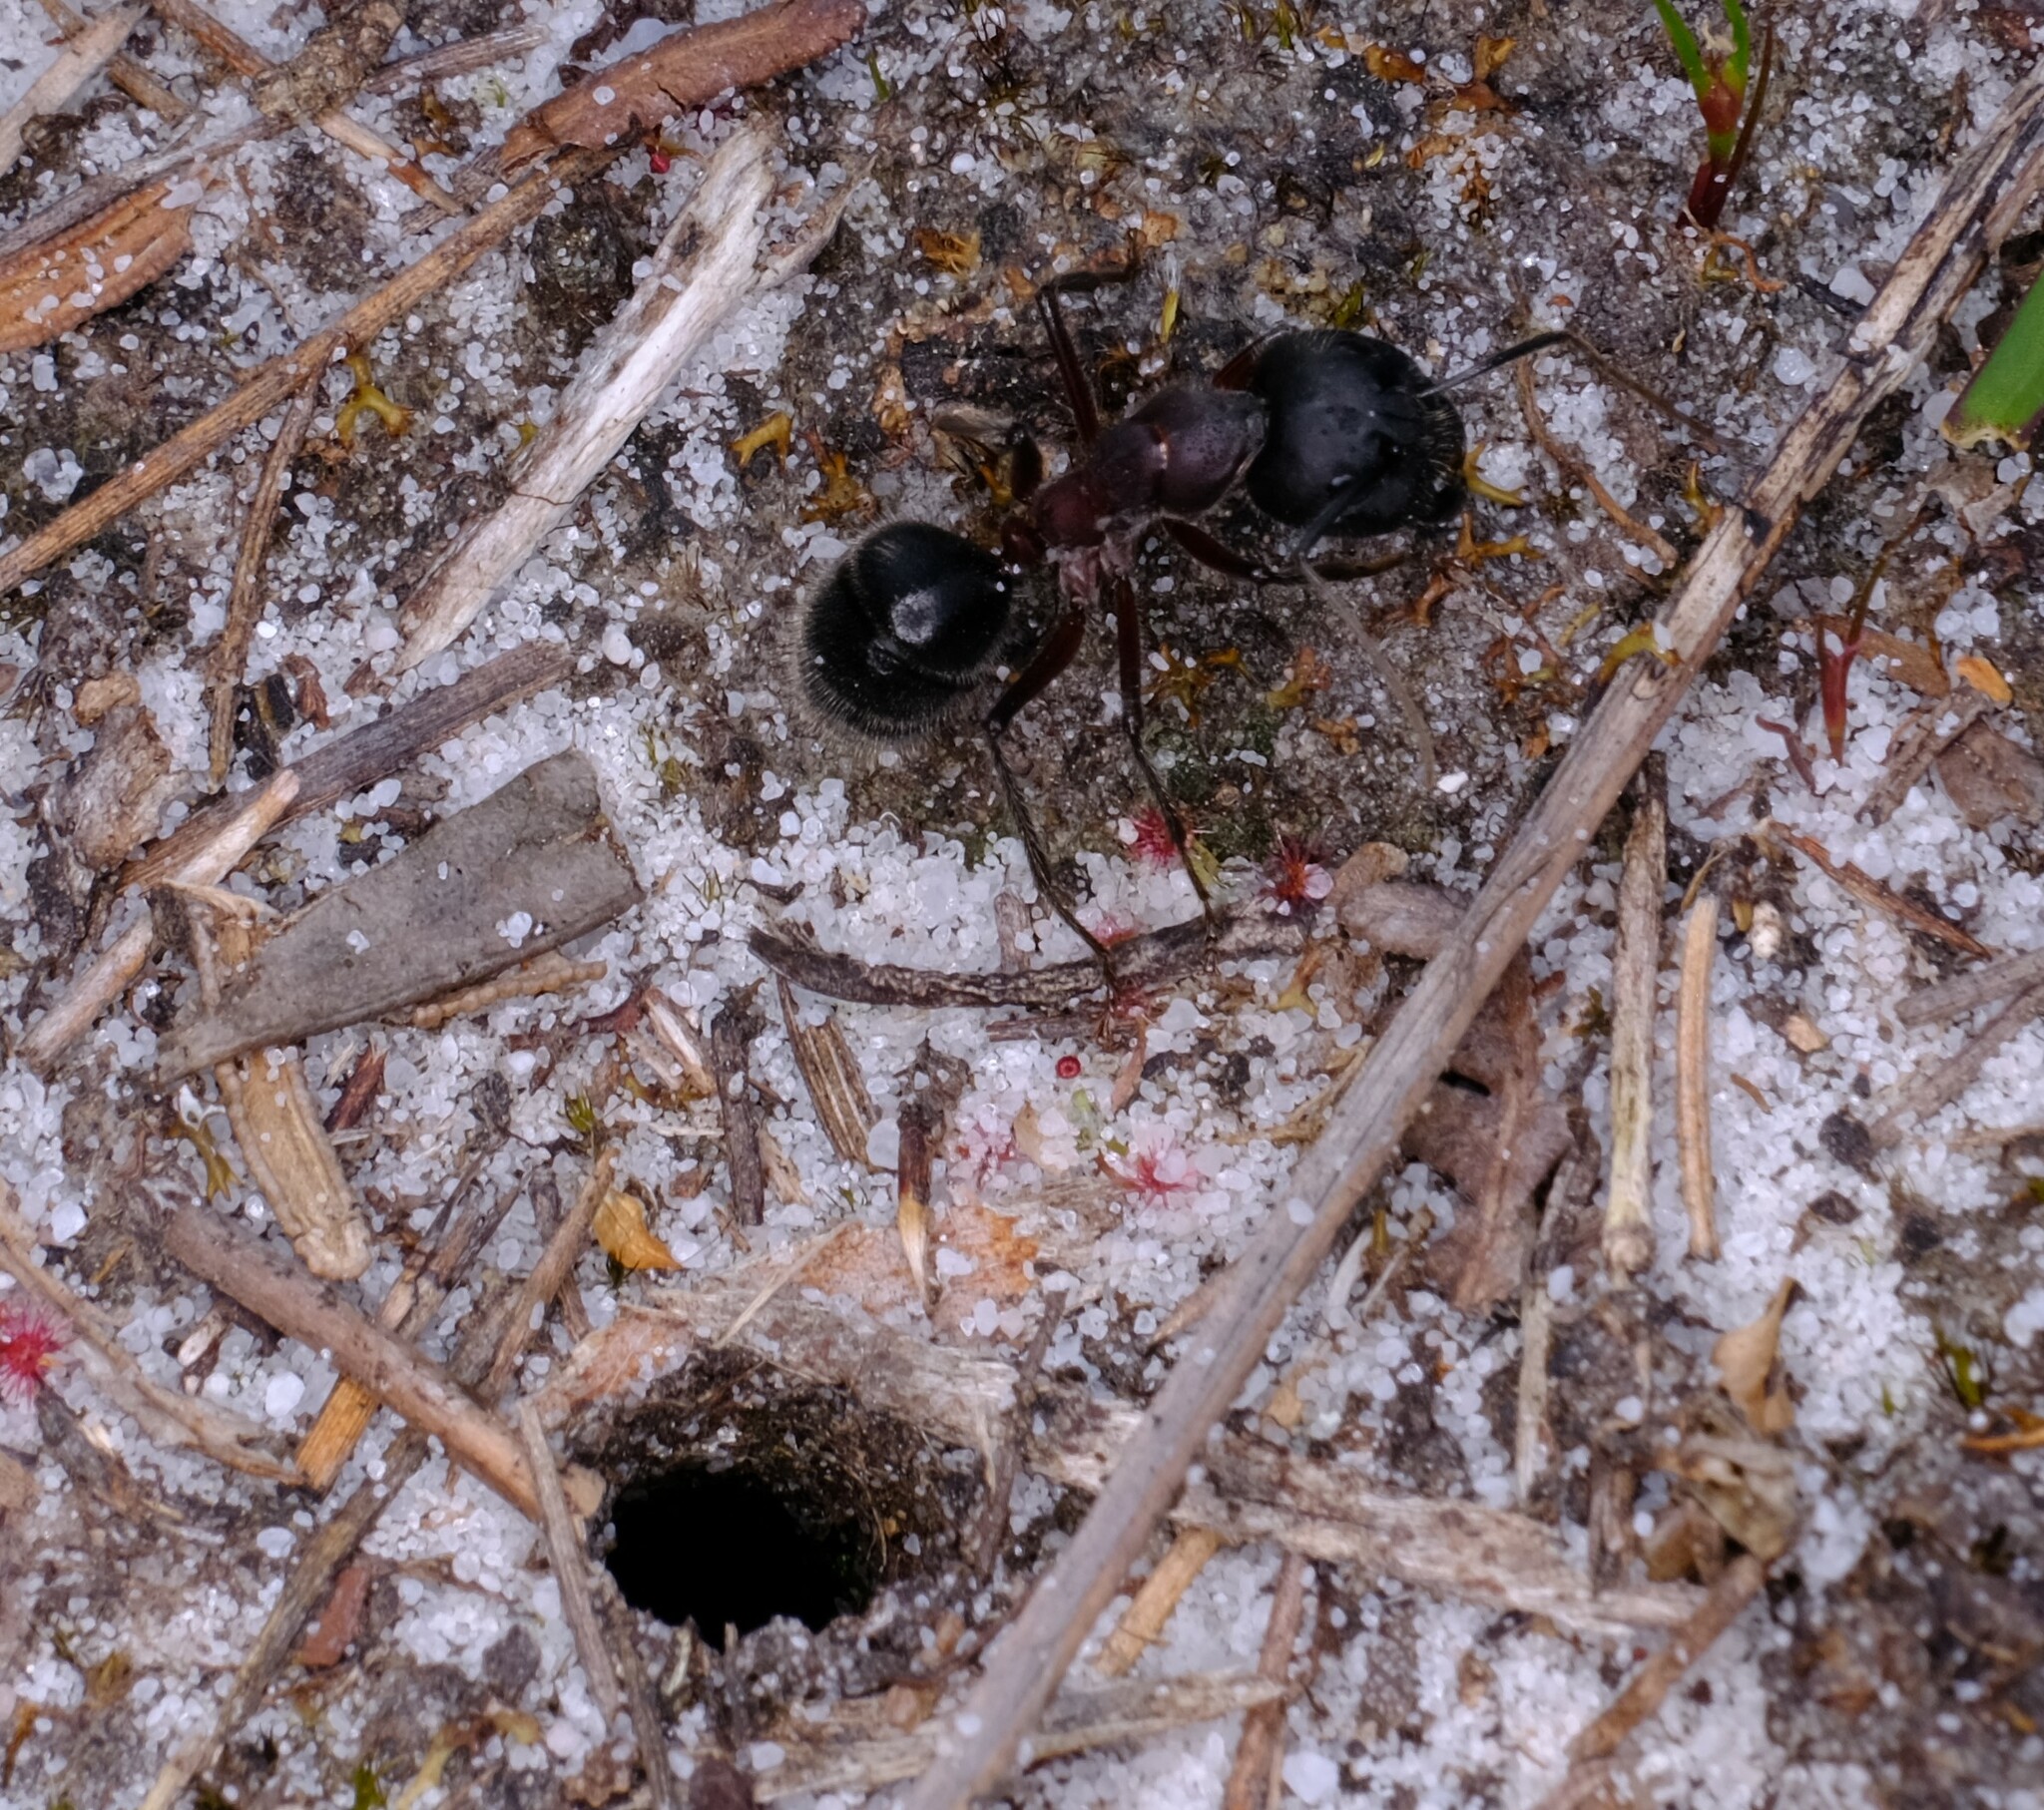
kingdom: Animalia
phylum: Arthropoda
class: Insecta
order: Hymenoptera
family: Formicidae
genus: Camponotus
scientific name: Camponotus intrepidus
